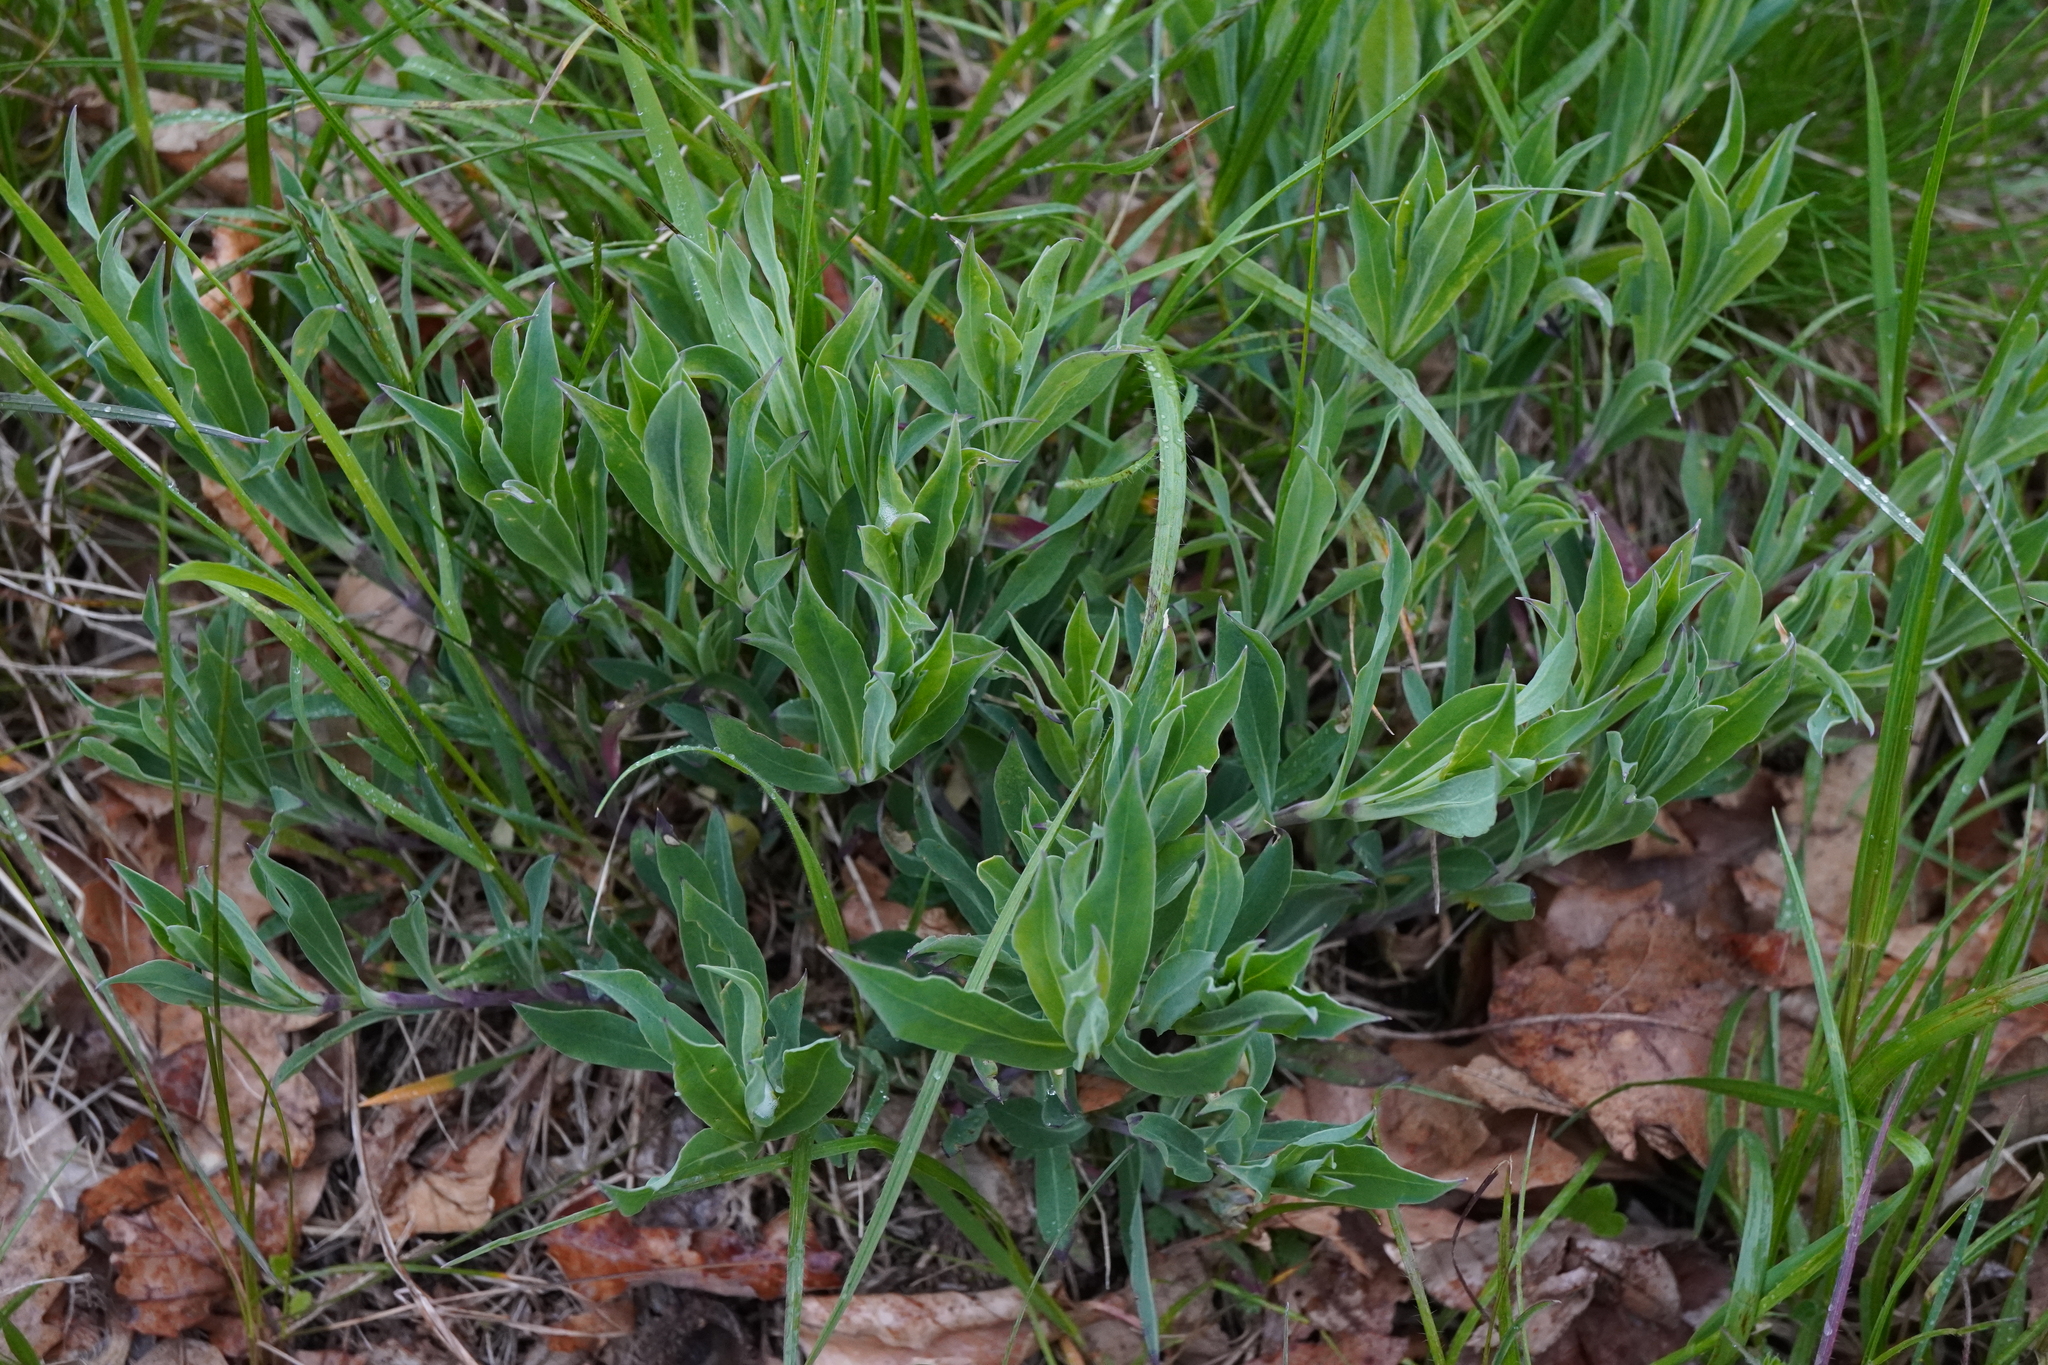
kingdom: Plantae
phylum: Tracheophyta
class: Magnoliopsida
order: Caryophyllales
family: Caryophyllaceae
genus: Silene
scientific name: Silene vulgaris
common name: Bladder campion
